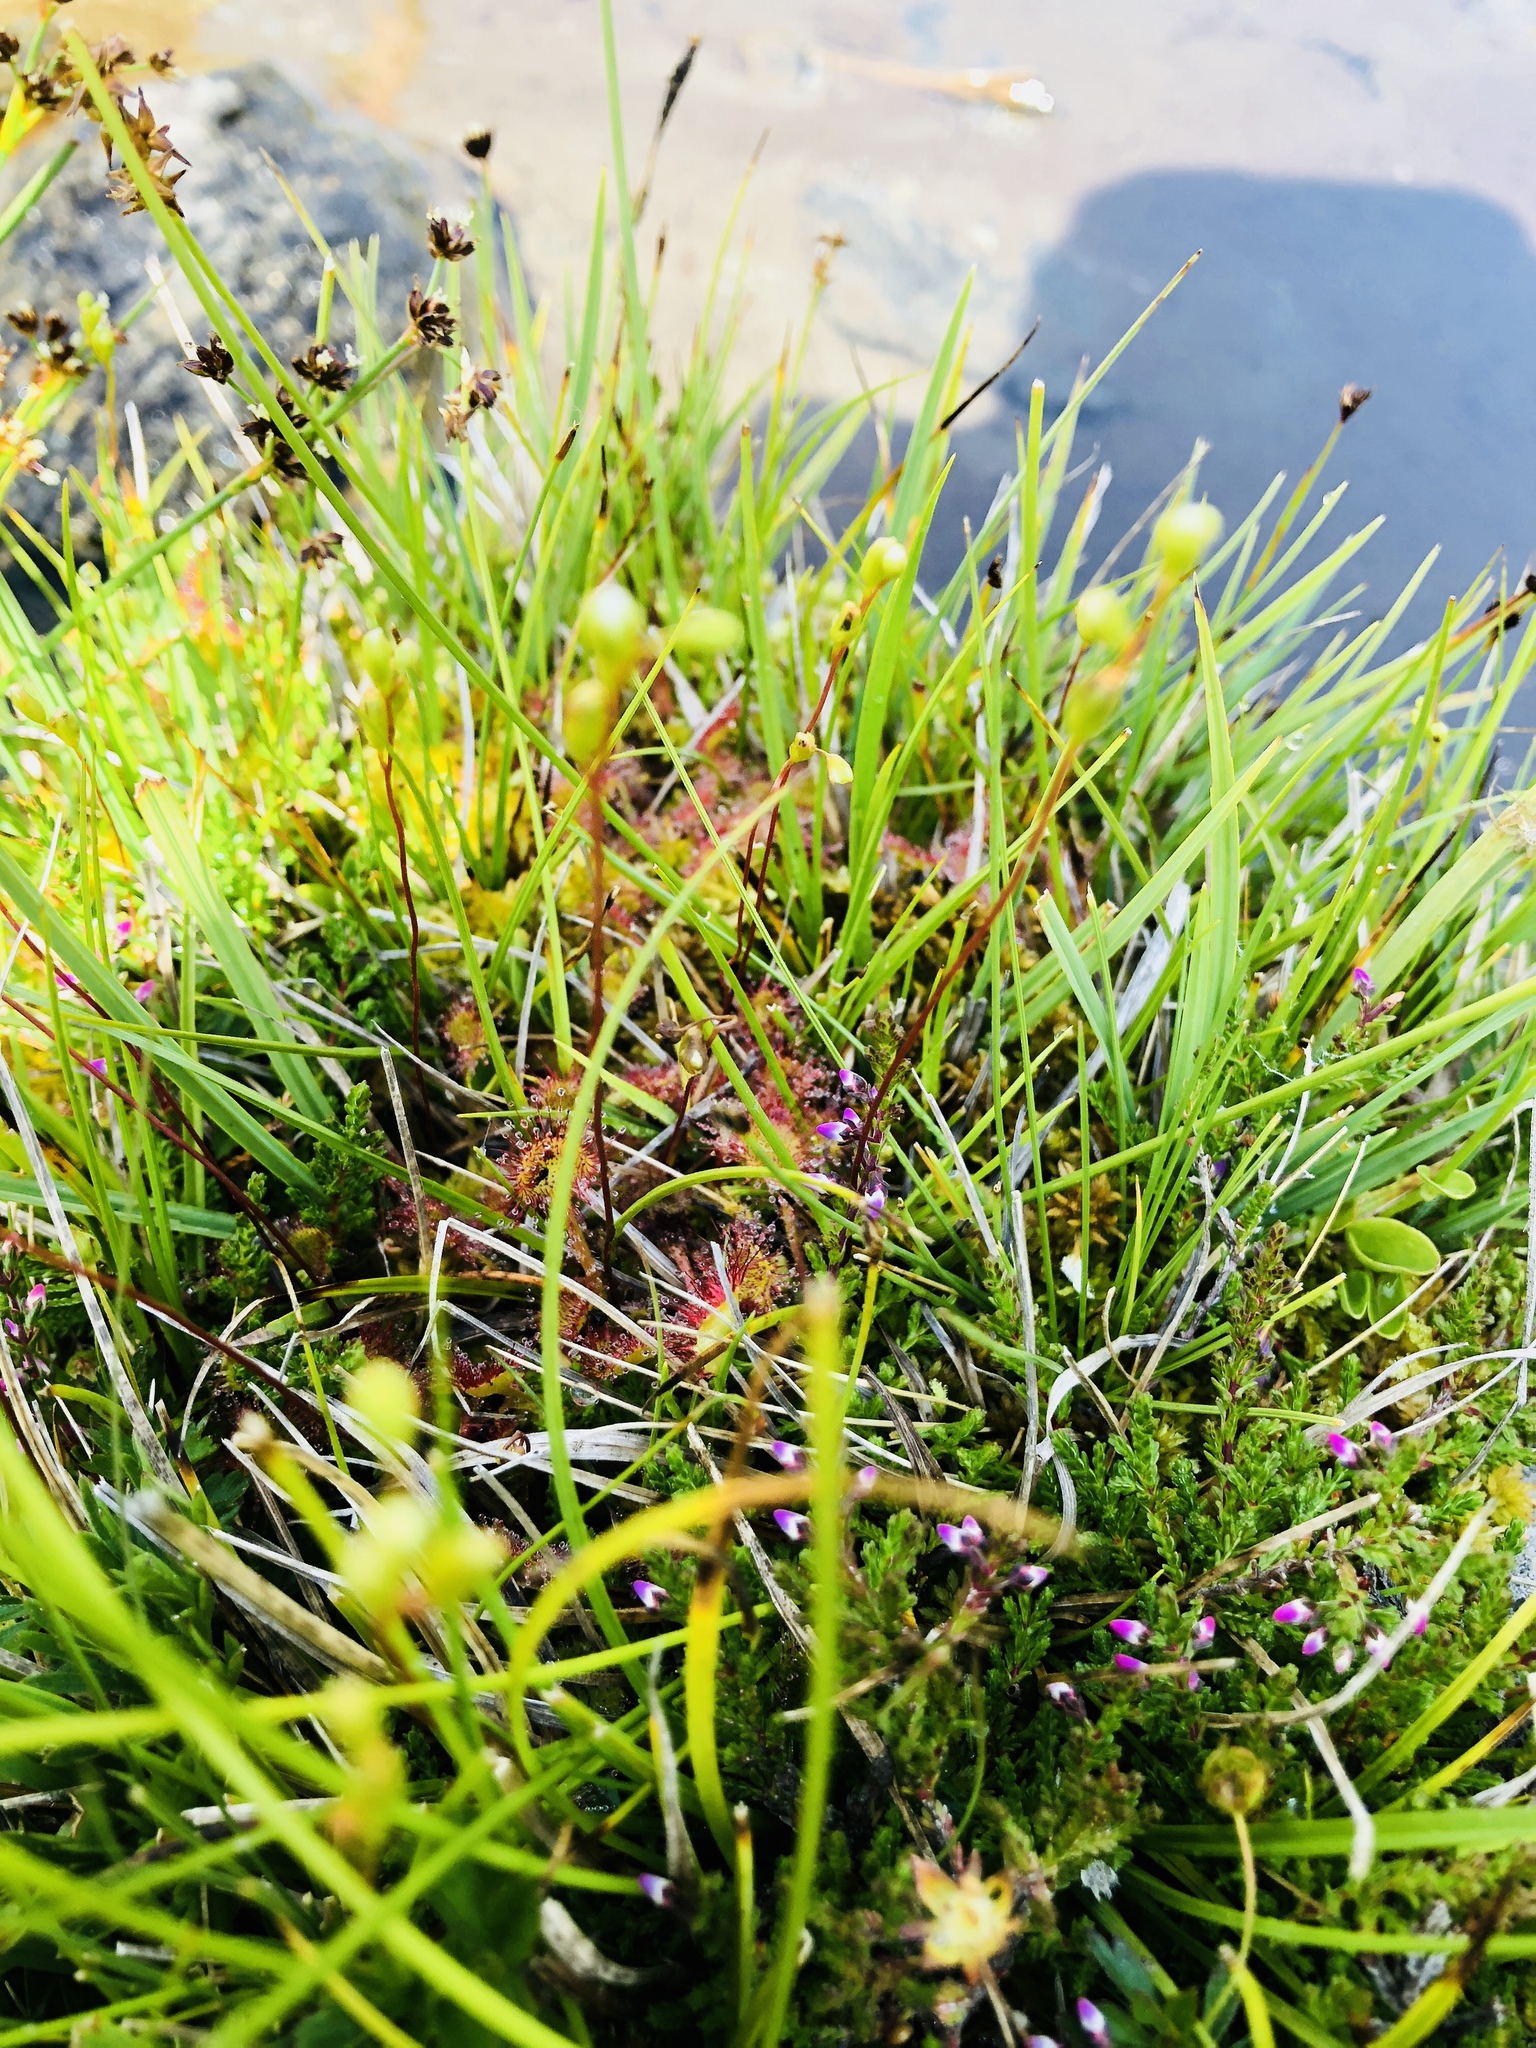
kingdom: Plantae
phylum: Tracheophyta
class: Magnoliopsida
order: Caryophyllales
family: Droseraceae
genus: Drosera
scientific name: Drosera rotundifolia
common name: Round-leaved sundew
